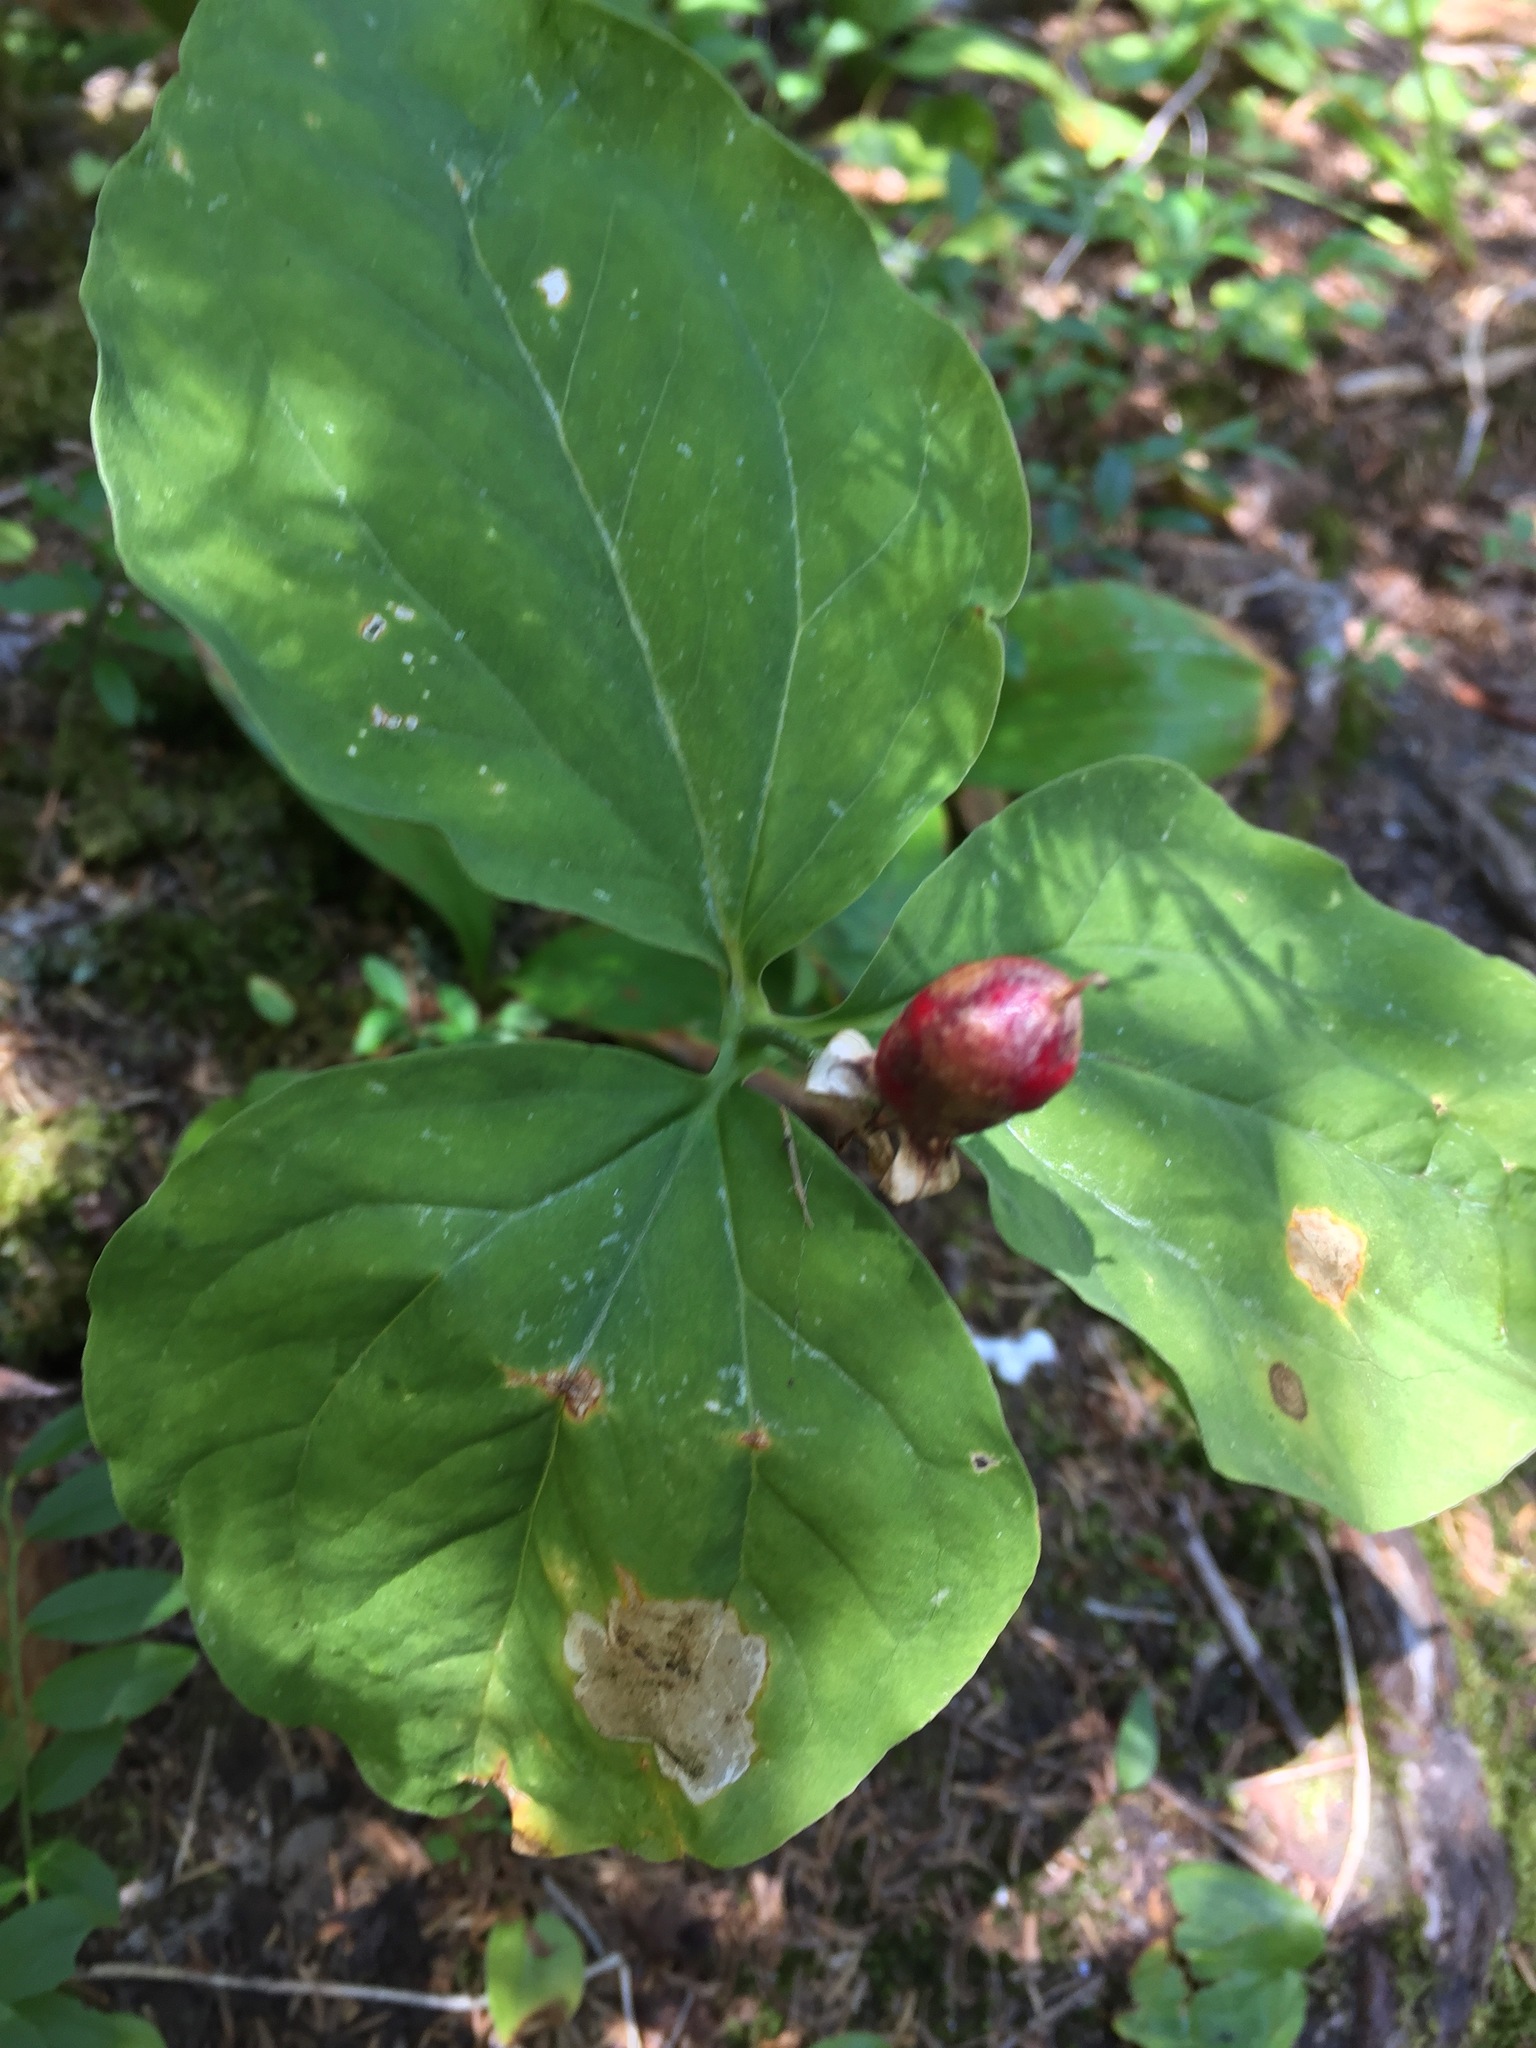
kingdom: Plantae
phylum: Tracheophyta
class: Liliopsida
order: Liliales
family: Melanthiaceae
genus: Trillium
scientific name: Trillium undulatum
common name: Paint trillium
